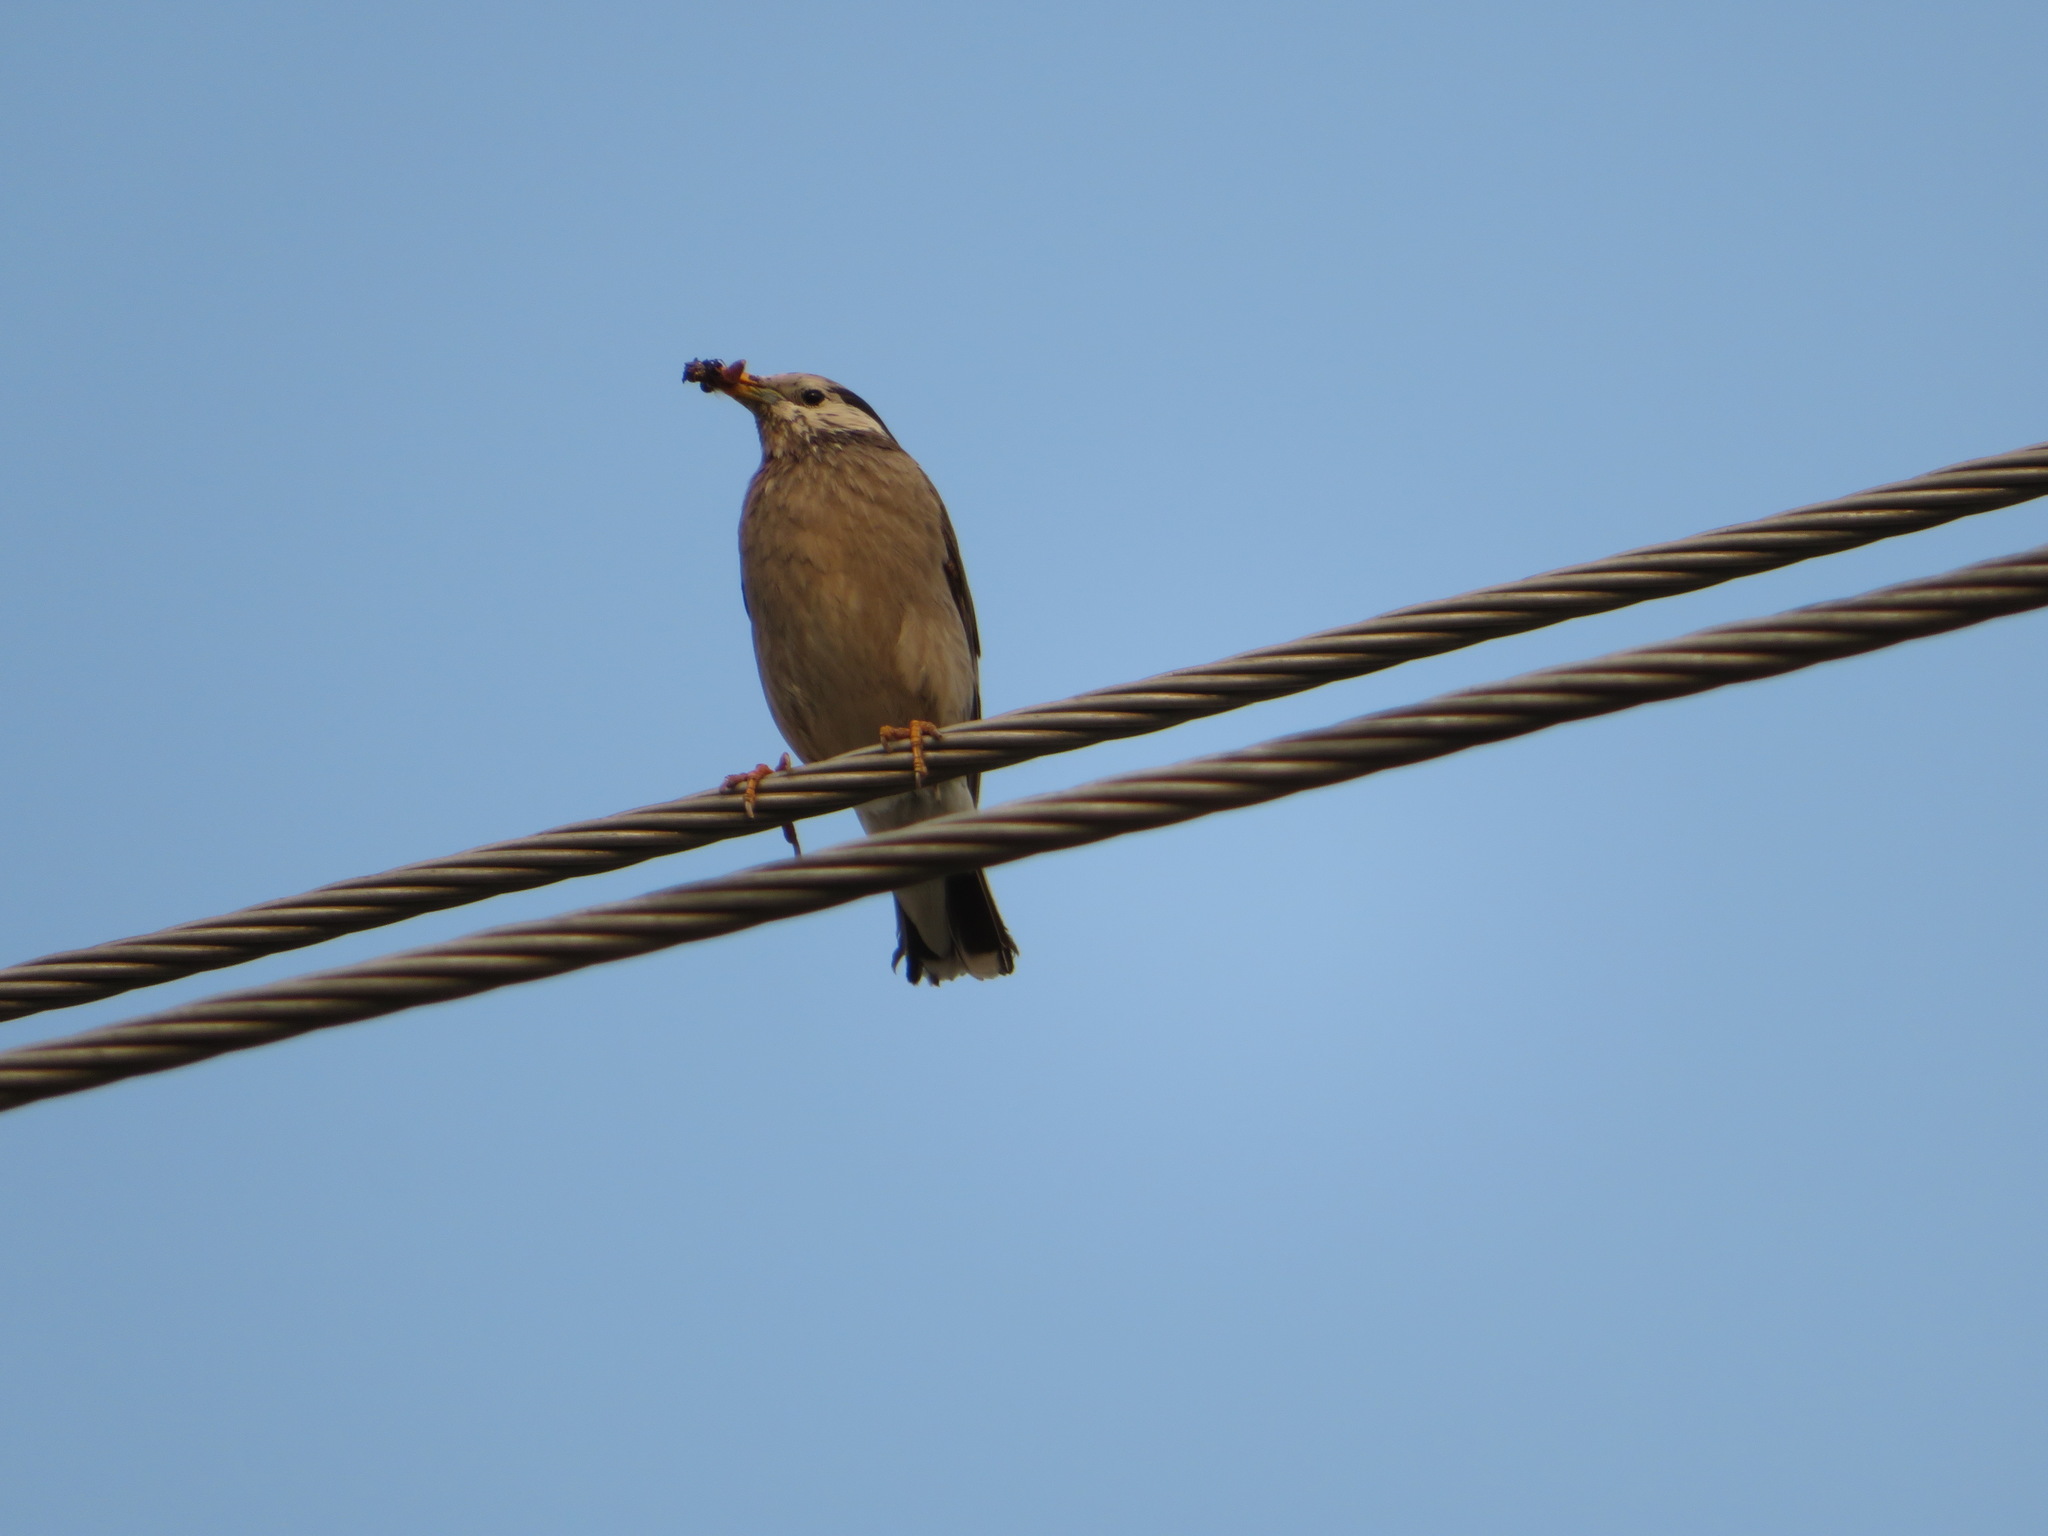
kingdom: Animalia
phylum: Chordata
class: Aves
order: Passeriformes
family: Sturnidae
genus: Spodiopsar
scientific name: Spodiopsar cineraceus
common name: White-cheeked starling
